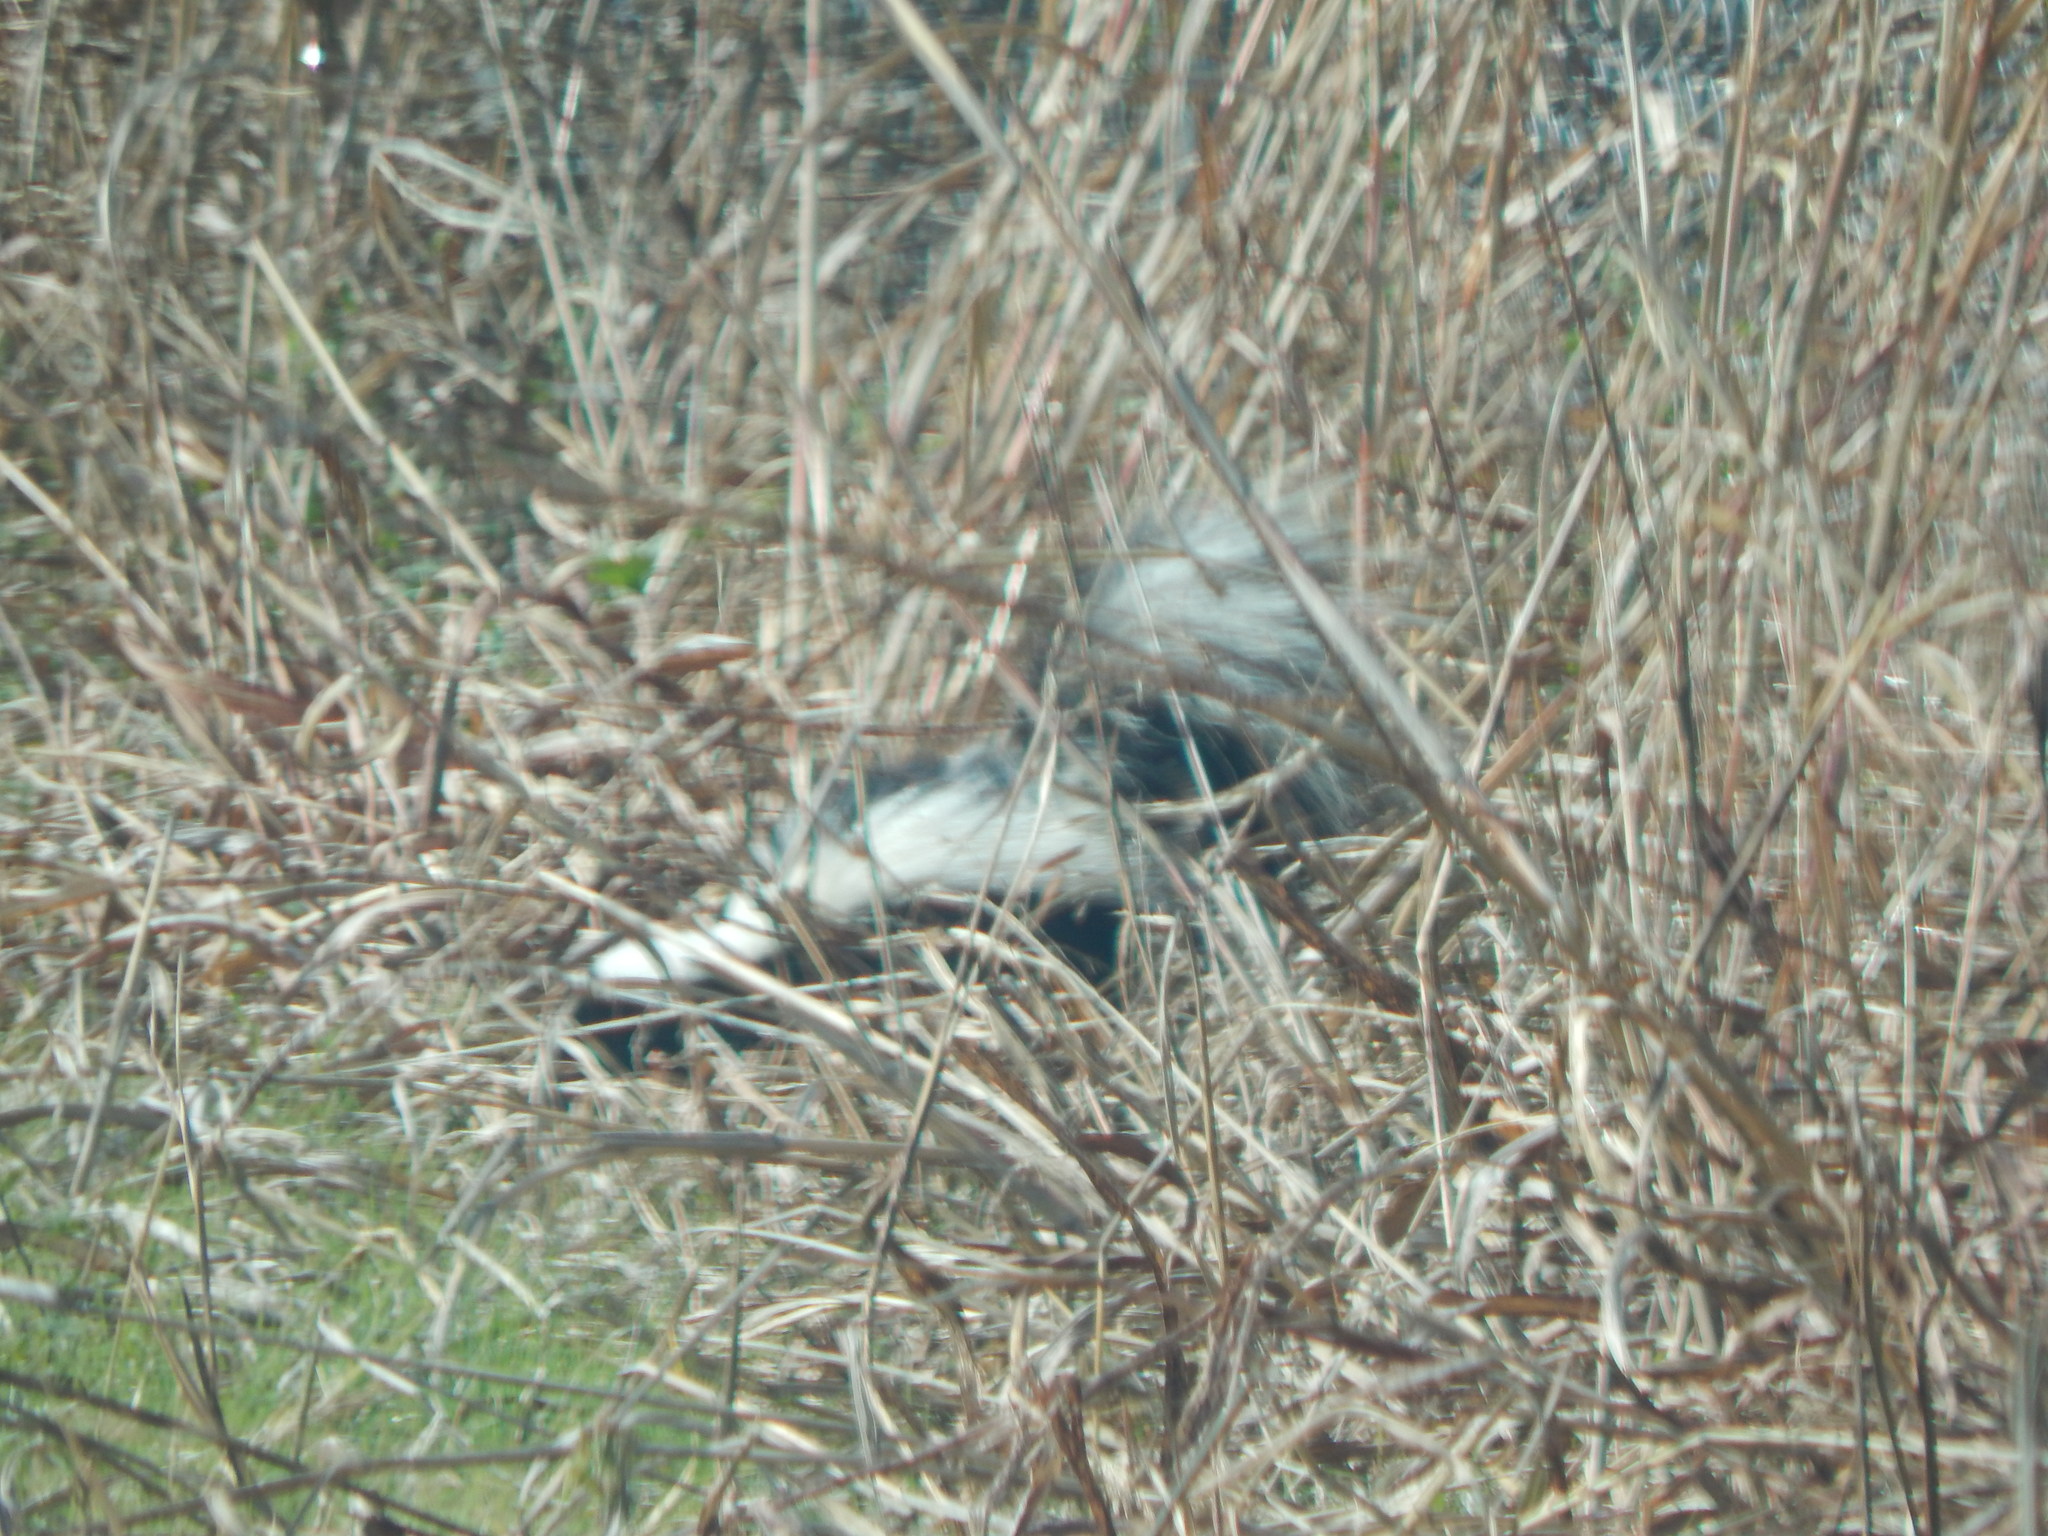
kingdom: Animalia
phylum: Chordata
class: Mammalia
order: Carnivora
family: Mephitidae
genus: Mephitis
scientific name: Mephitis mephitis
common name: Striped skunk
